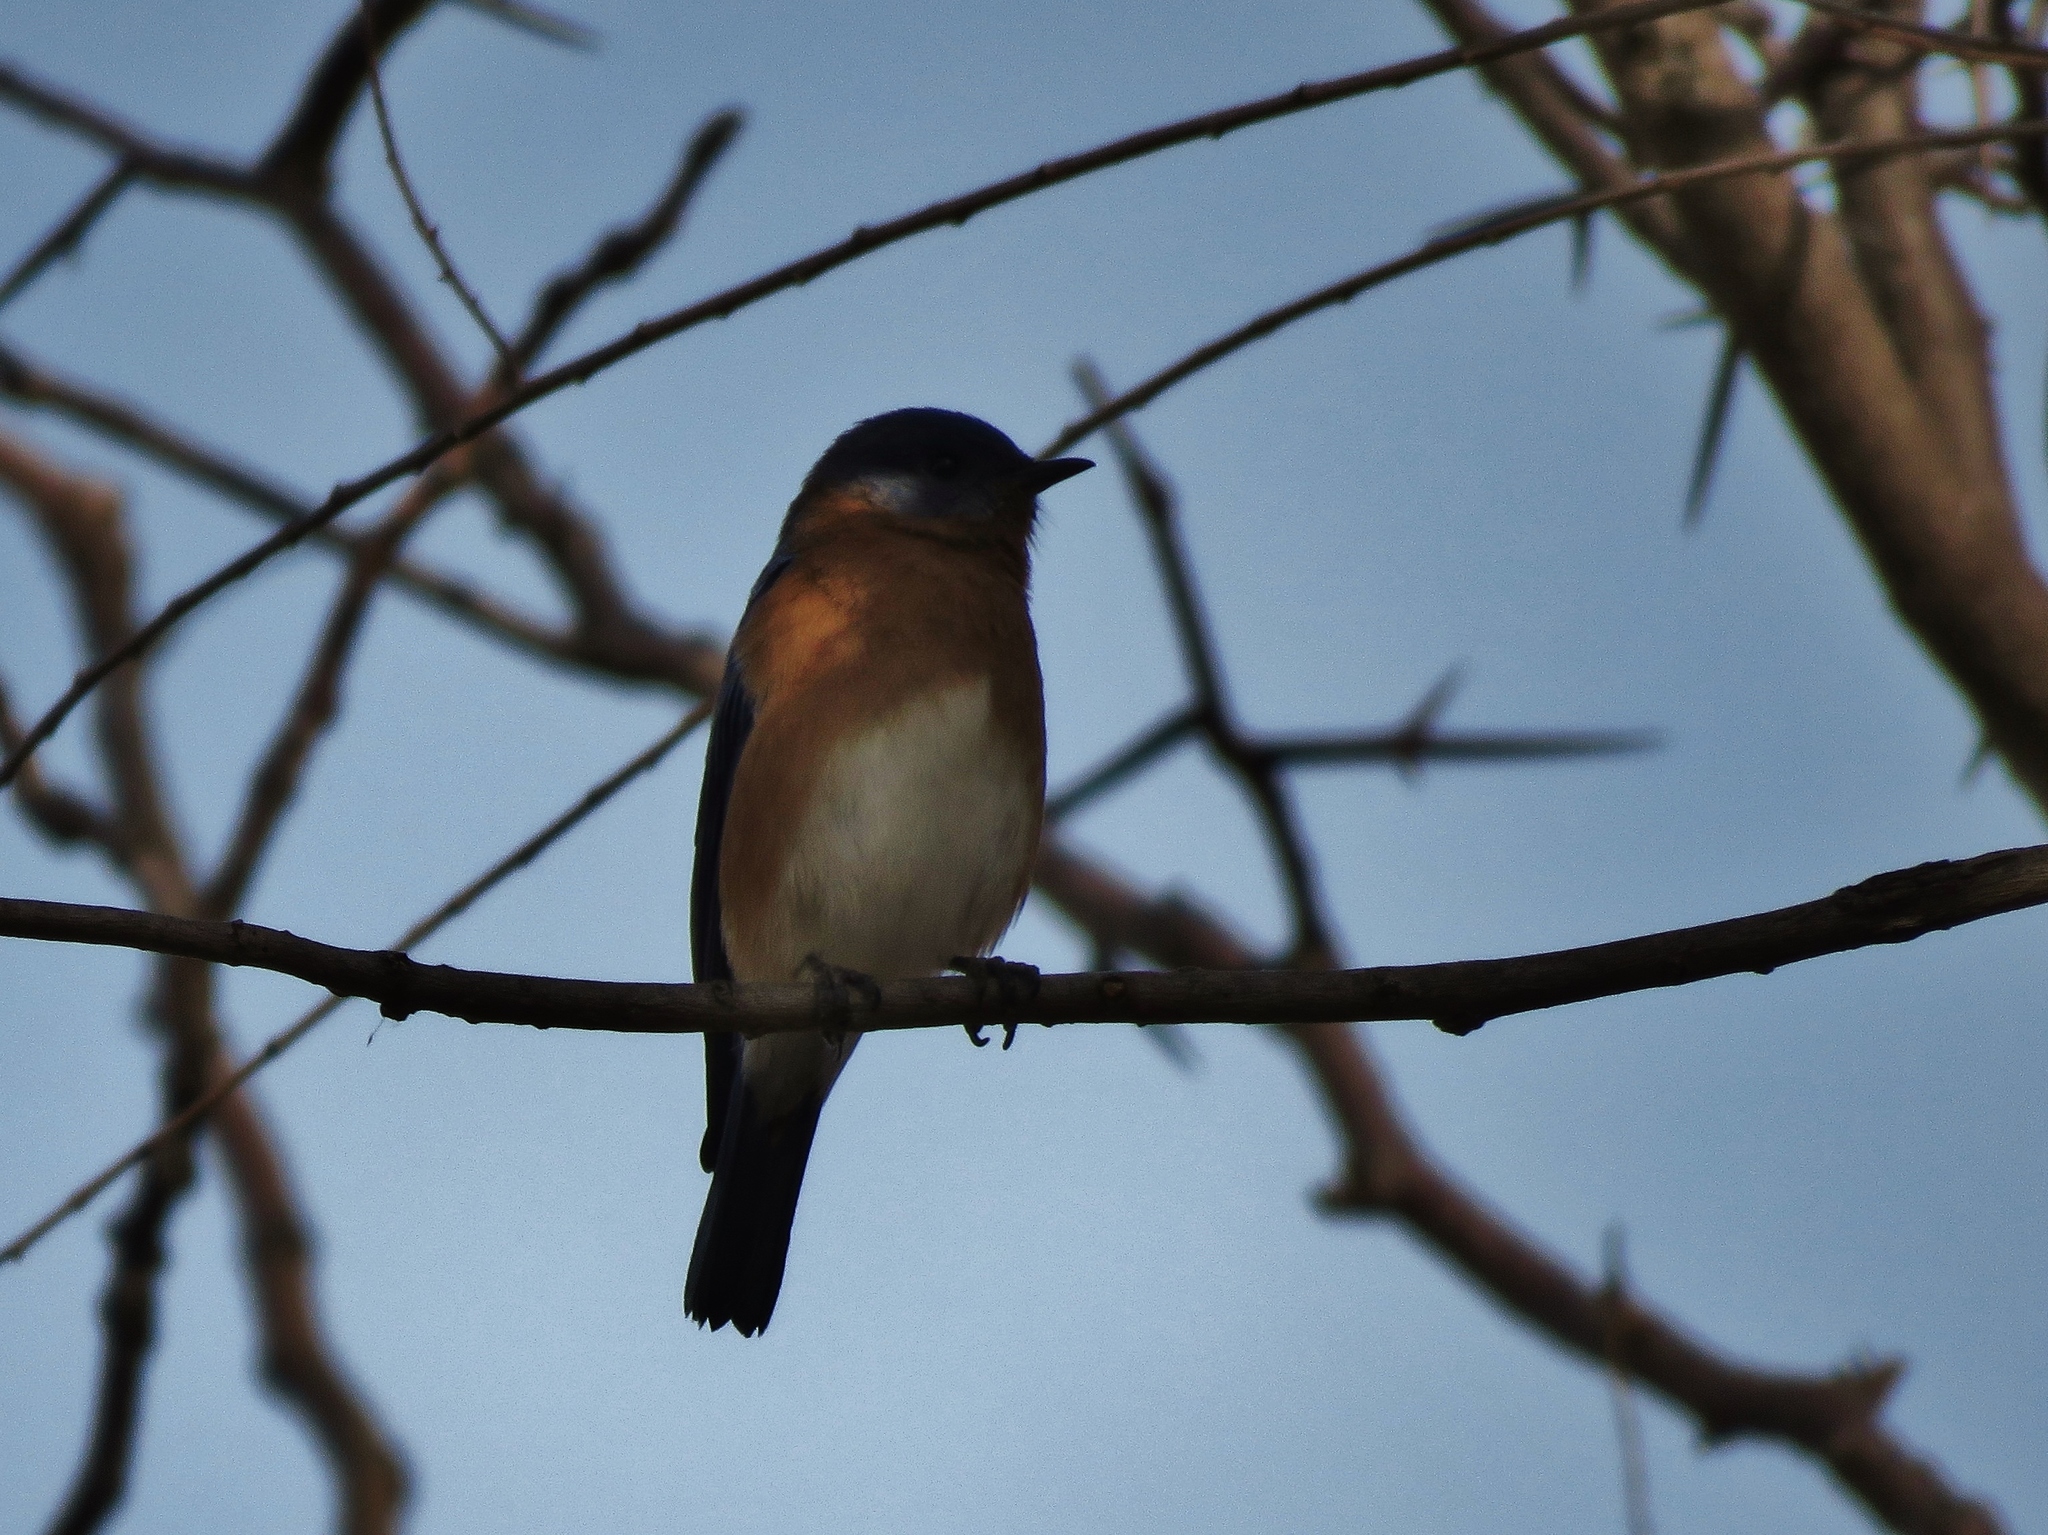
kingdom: Animalia
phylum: Chordata
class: Aves
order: Passeriformes
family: Turdidae
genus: Sialia
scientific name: Sialia sialis
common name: Eastern bluebird
